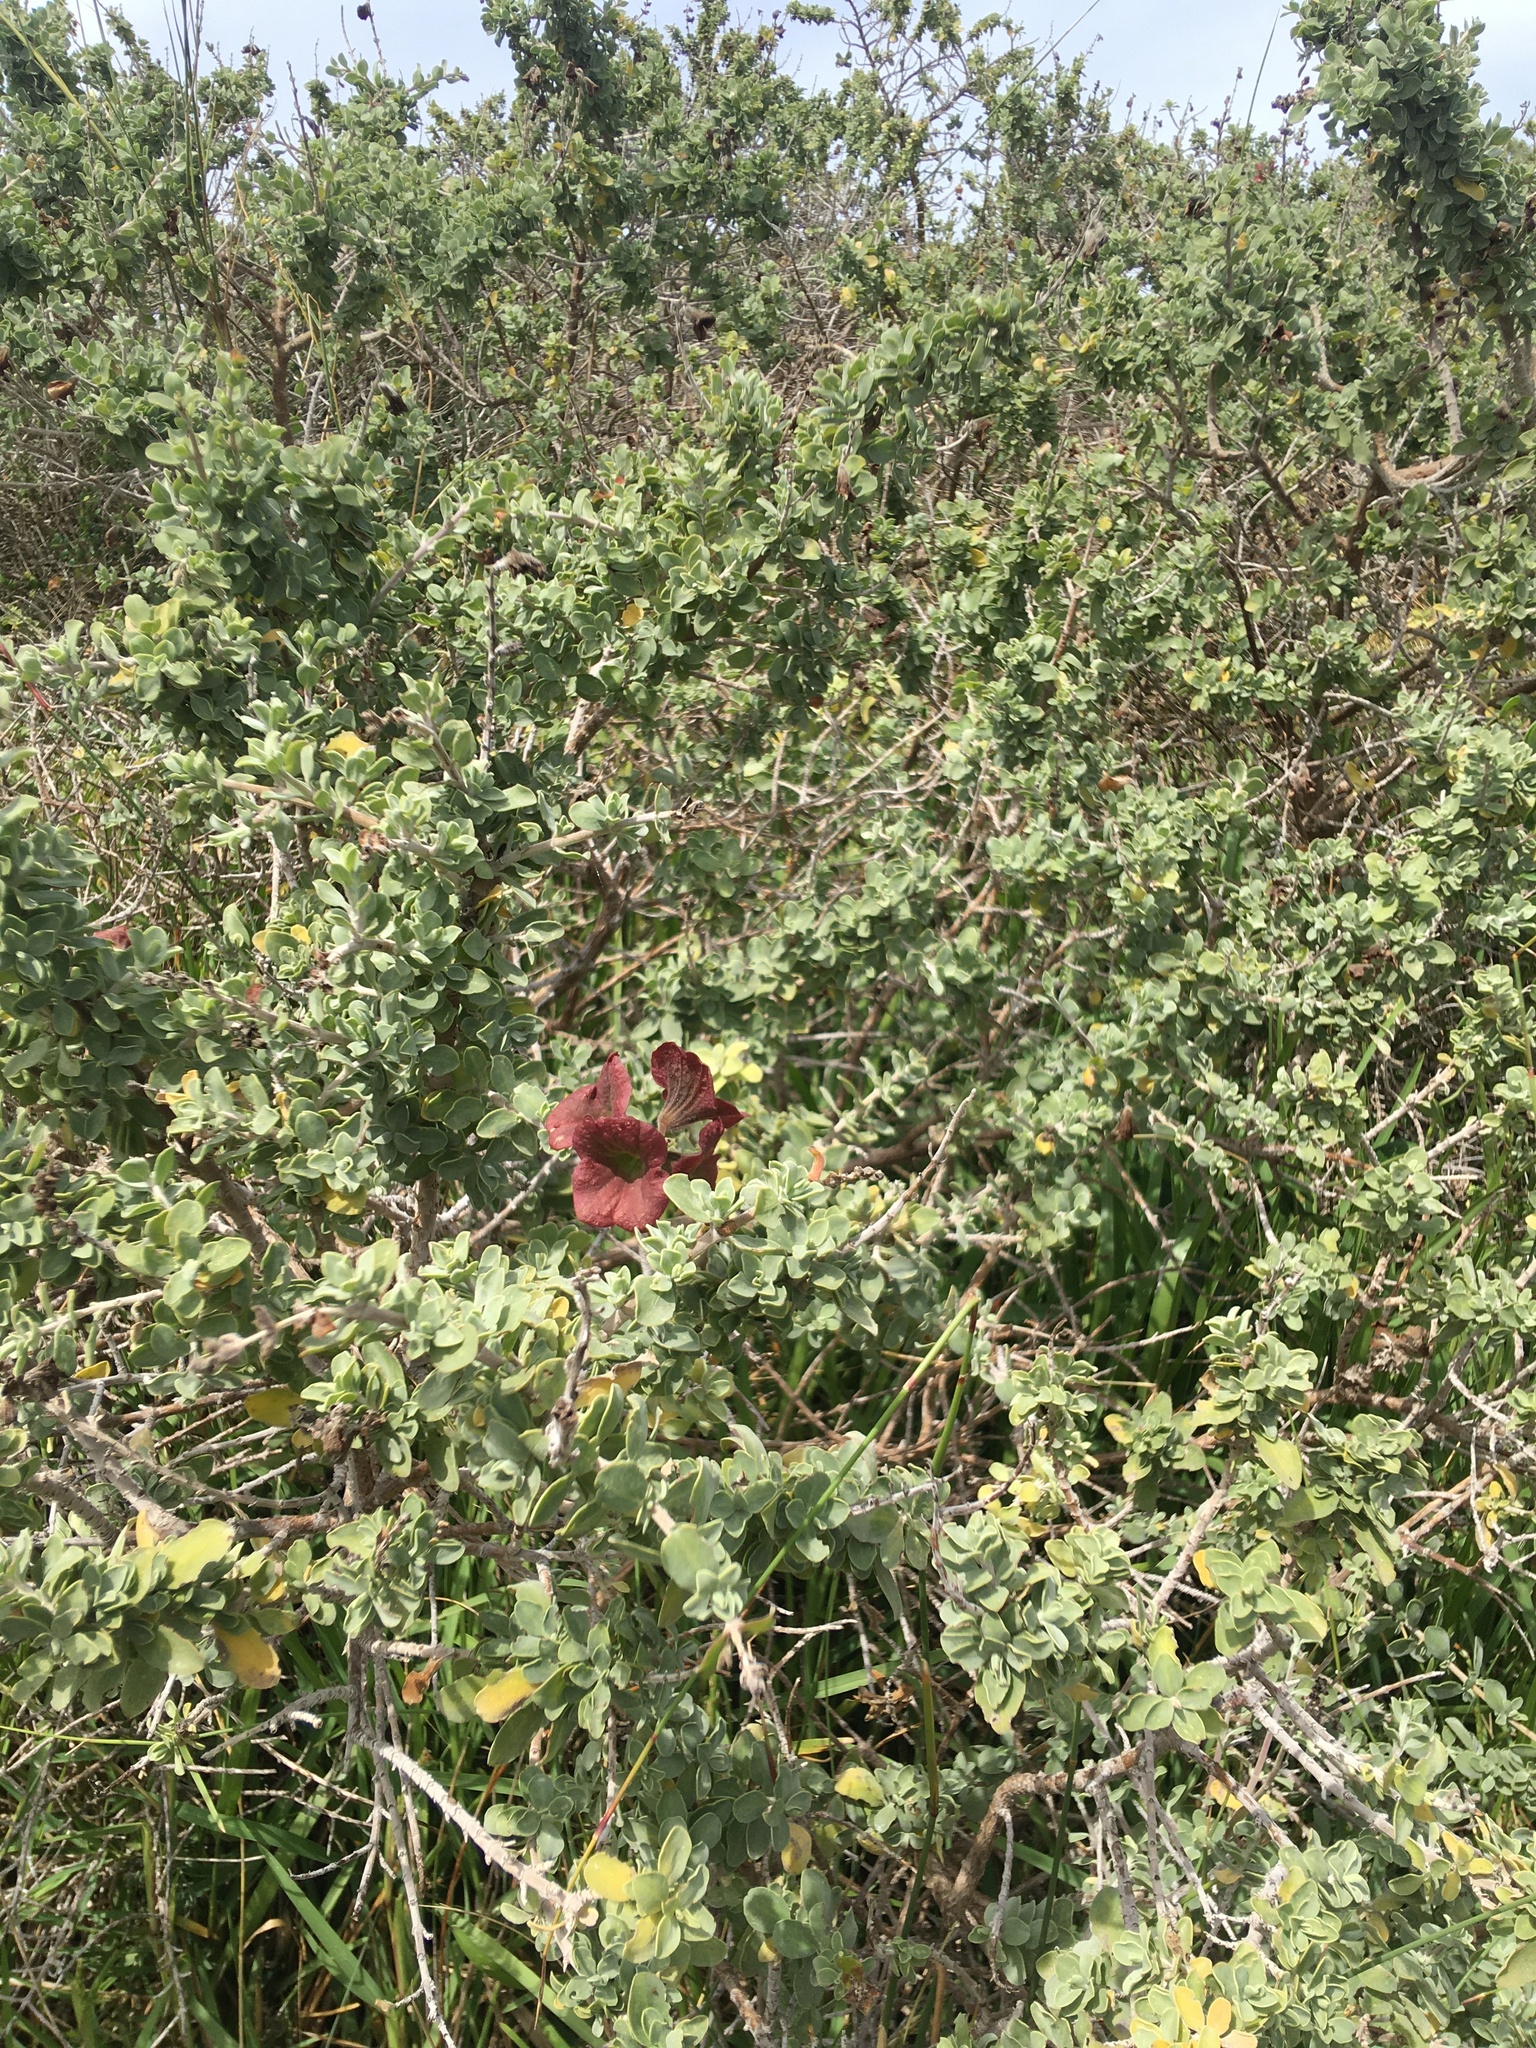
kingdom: Plantae
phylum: Tracheophyta
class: Magnoliopsida
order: Lamiales
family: Lamiaceae
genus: Salvia
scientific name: Salvia aurea
